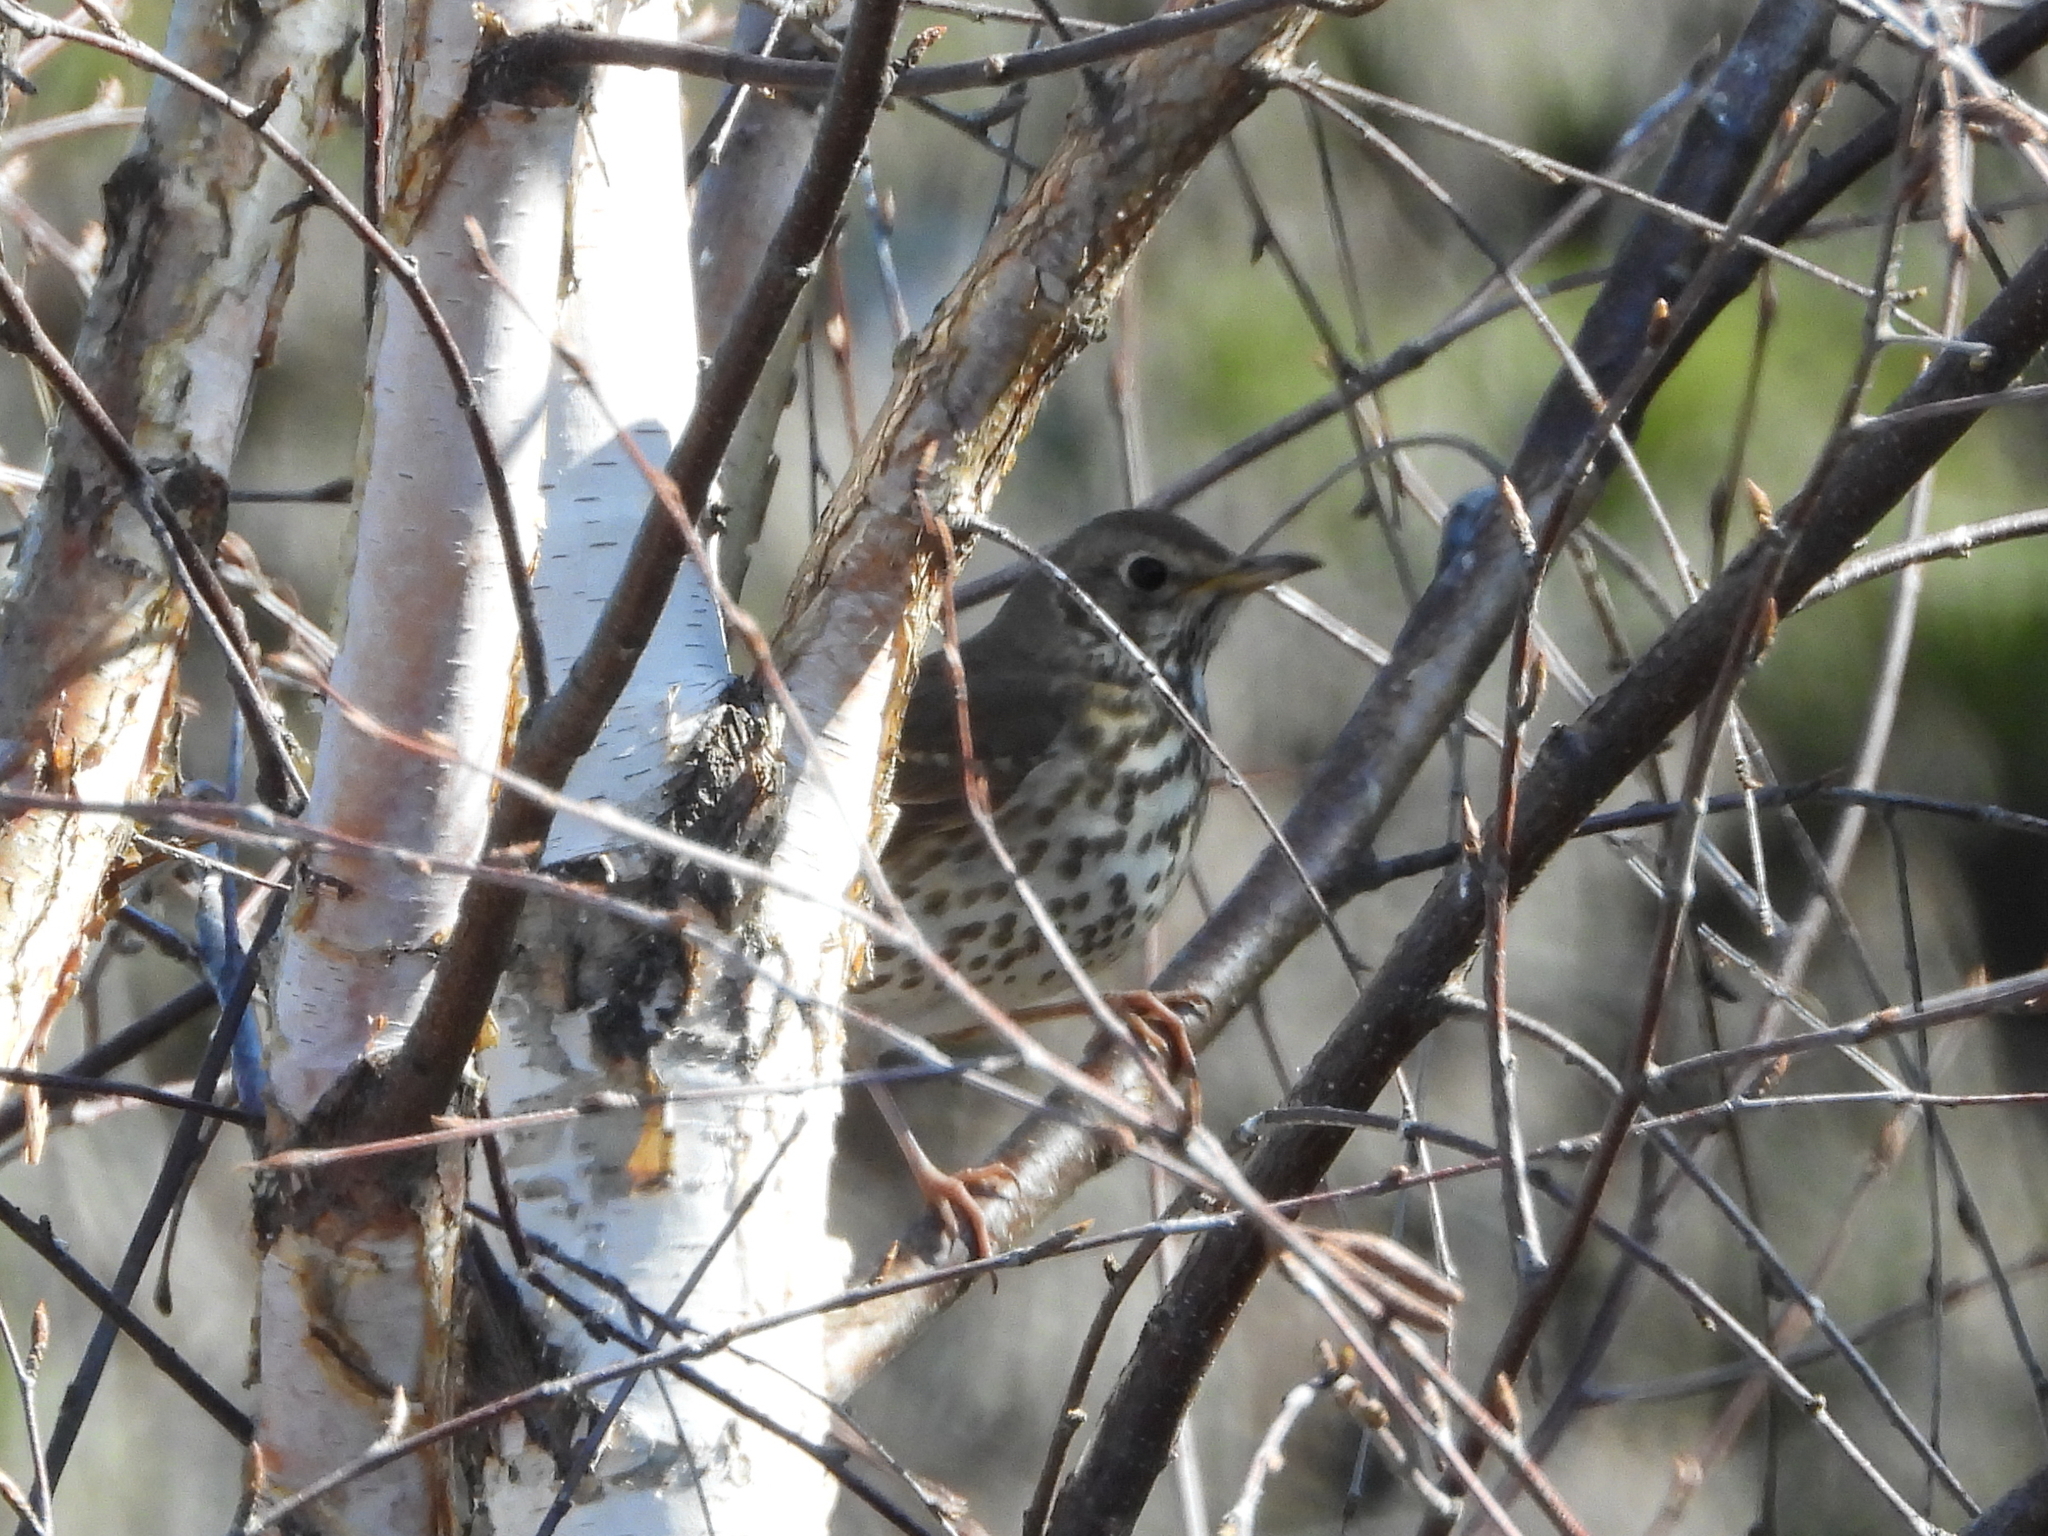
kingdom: Animalia
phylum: Chordata
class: Aves
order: Passeriformes
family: Turdidae
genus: Turdus
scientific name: Turdus philomelos
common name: Song thrush
